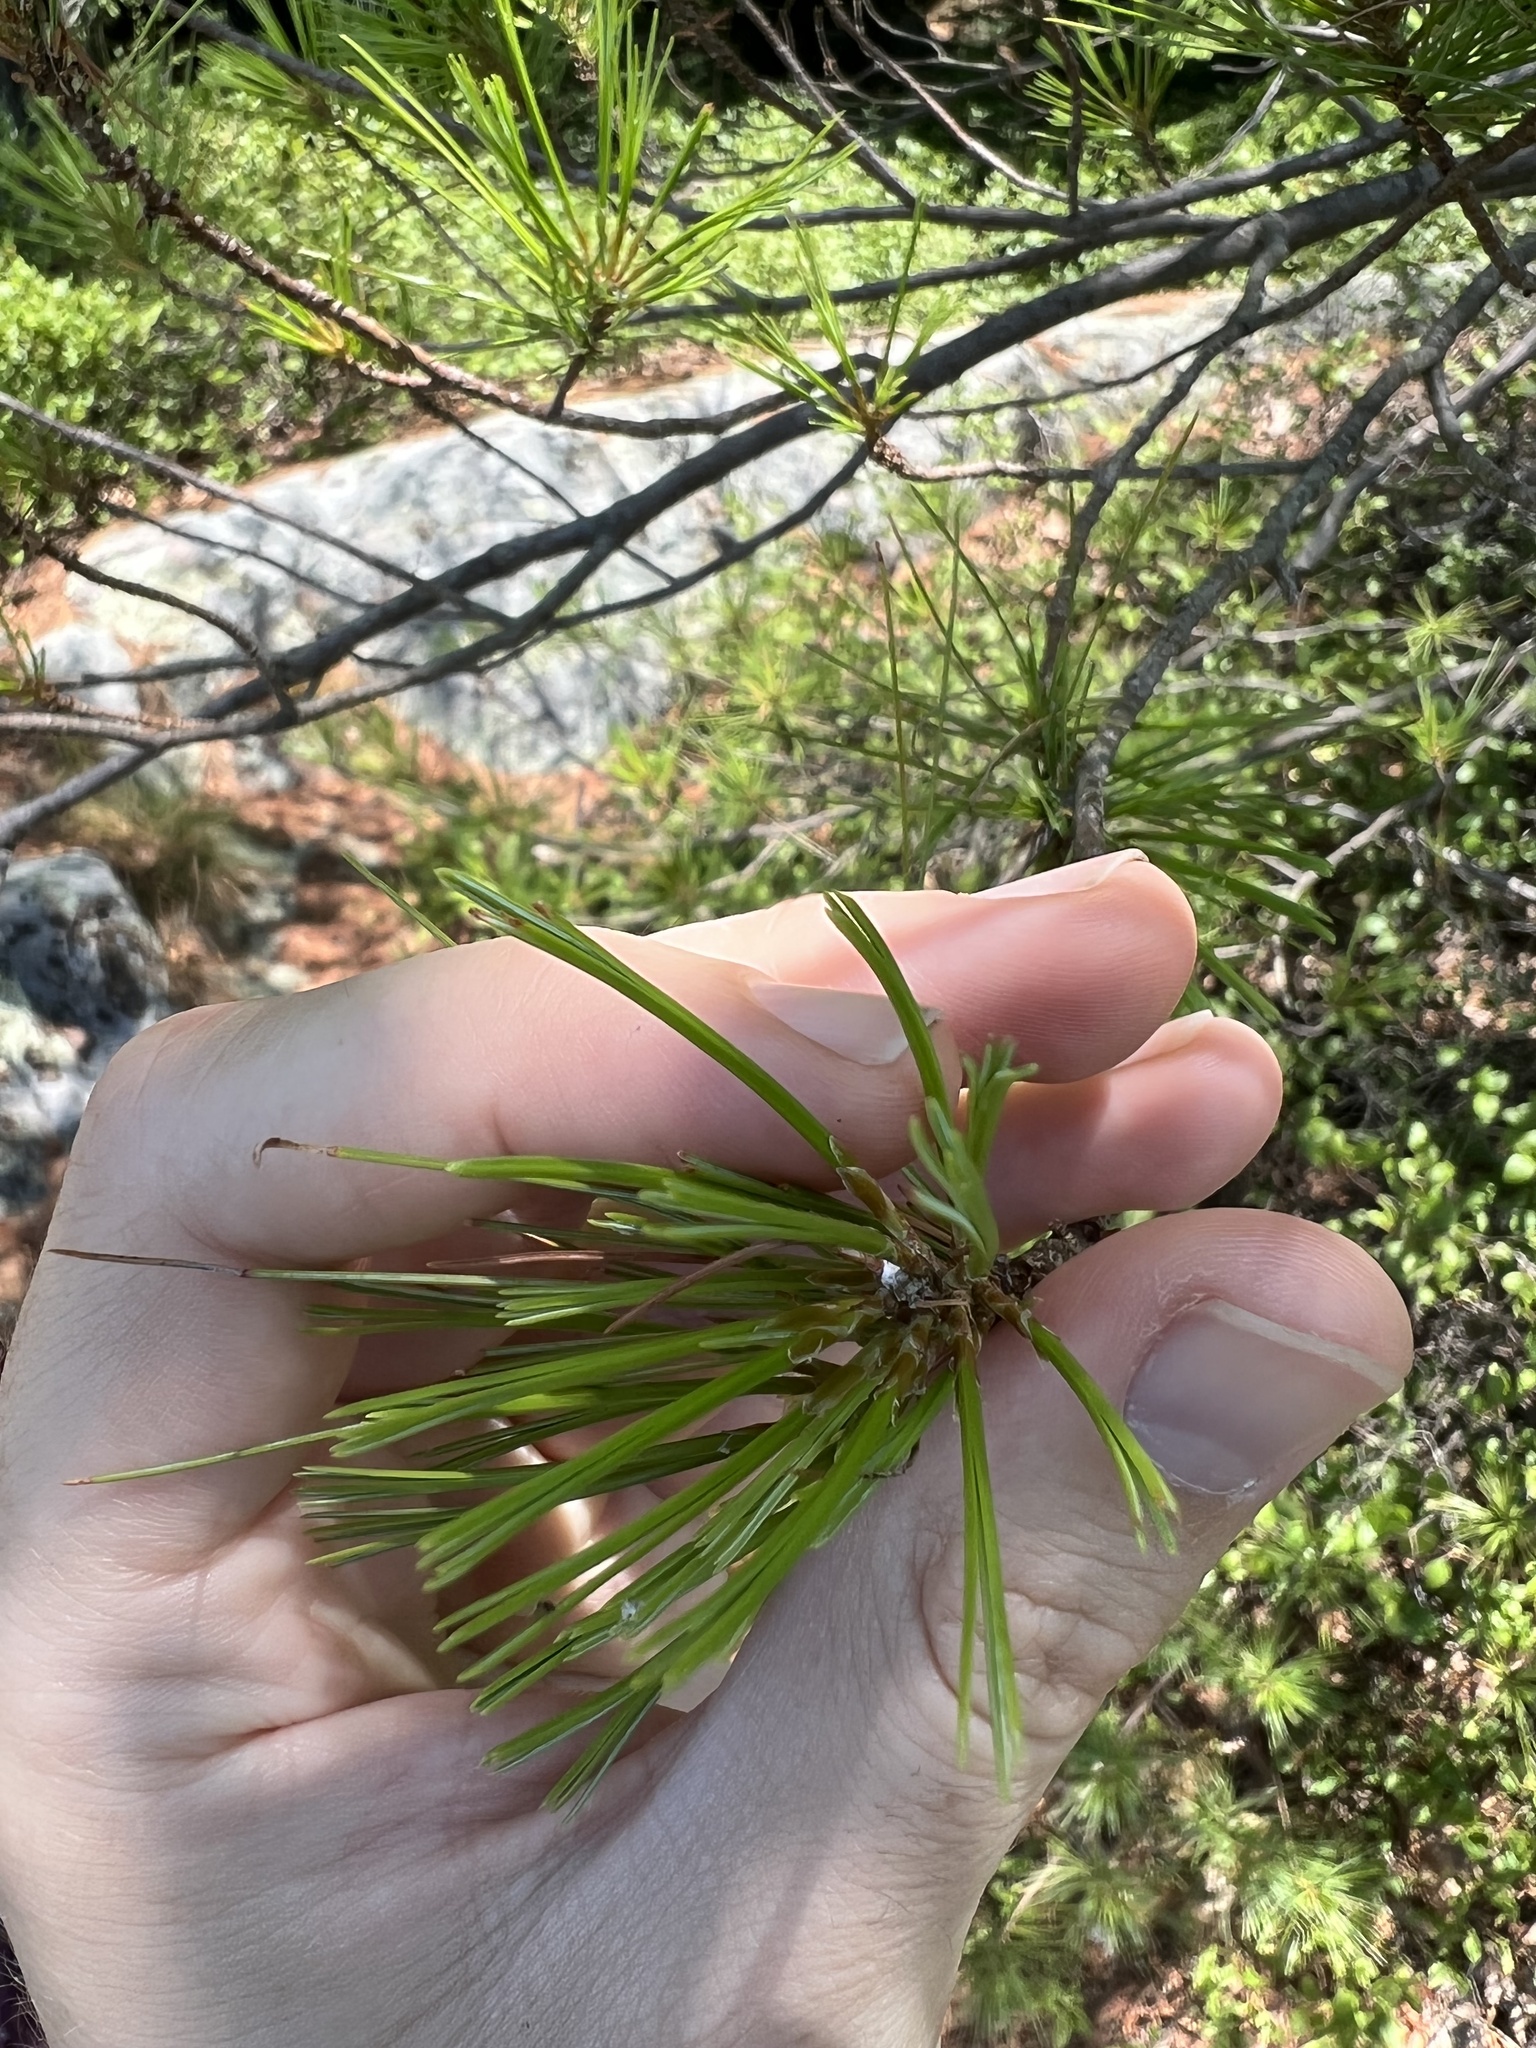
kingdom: Plantae
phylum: Tracheophyta
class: Pinopsida
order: Pinales
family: Pinaceae
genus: Pinus
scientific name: Pinus strobus
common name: Weymouth pine
